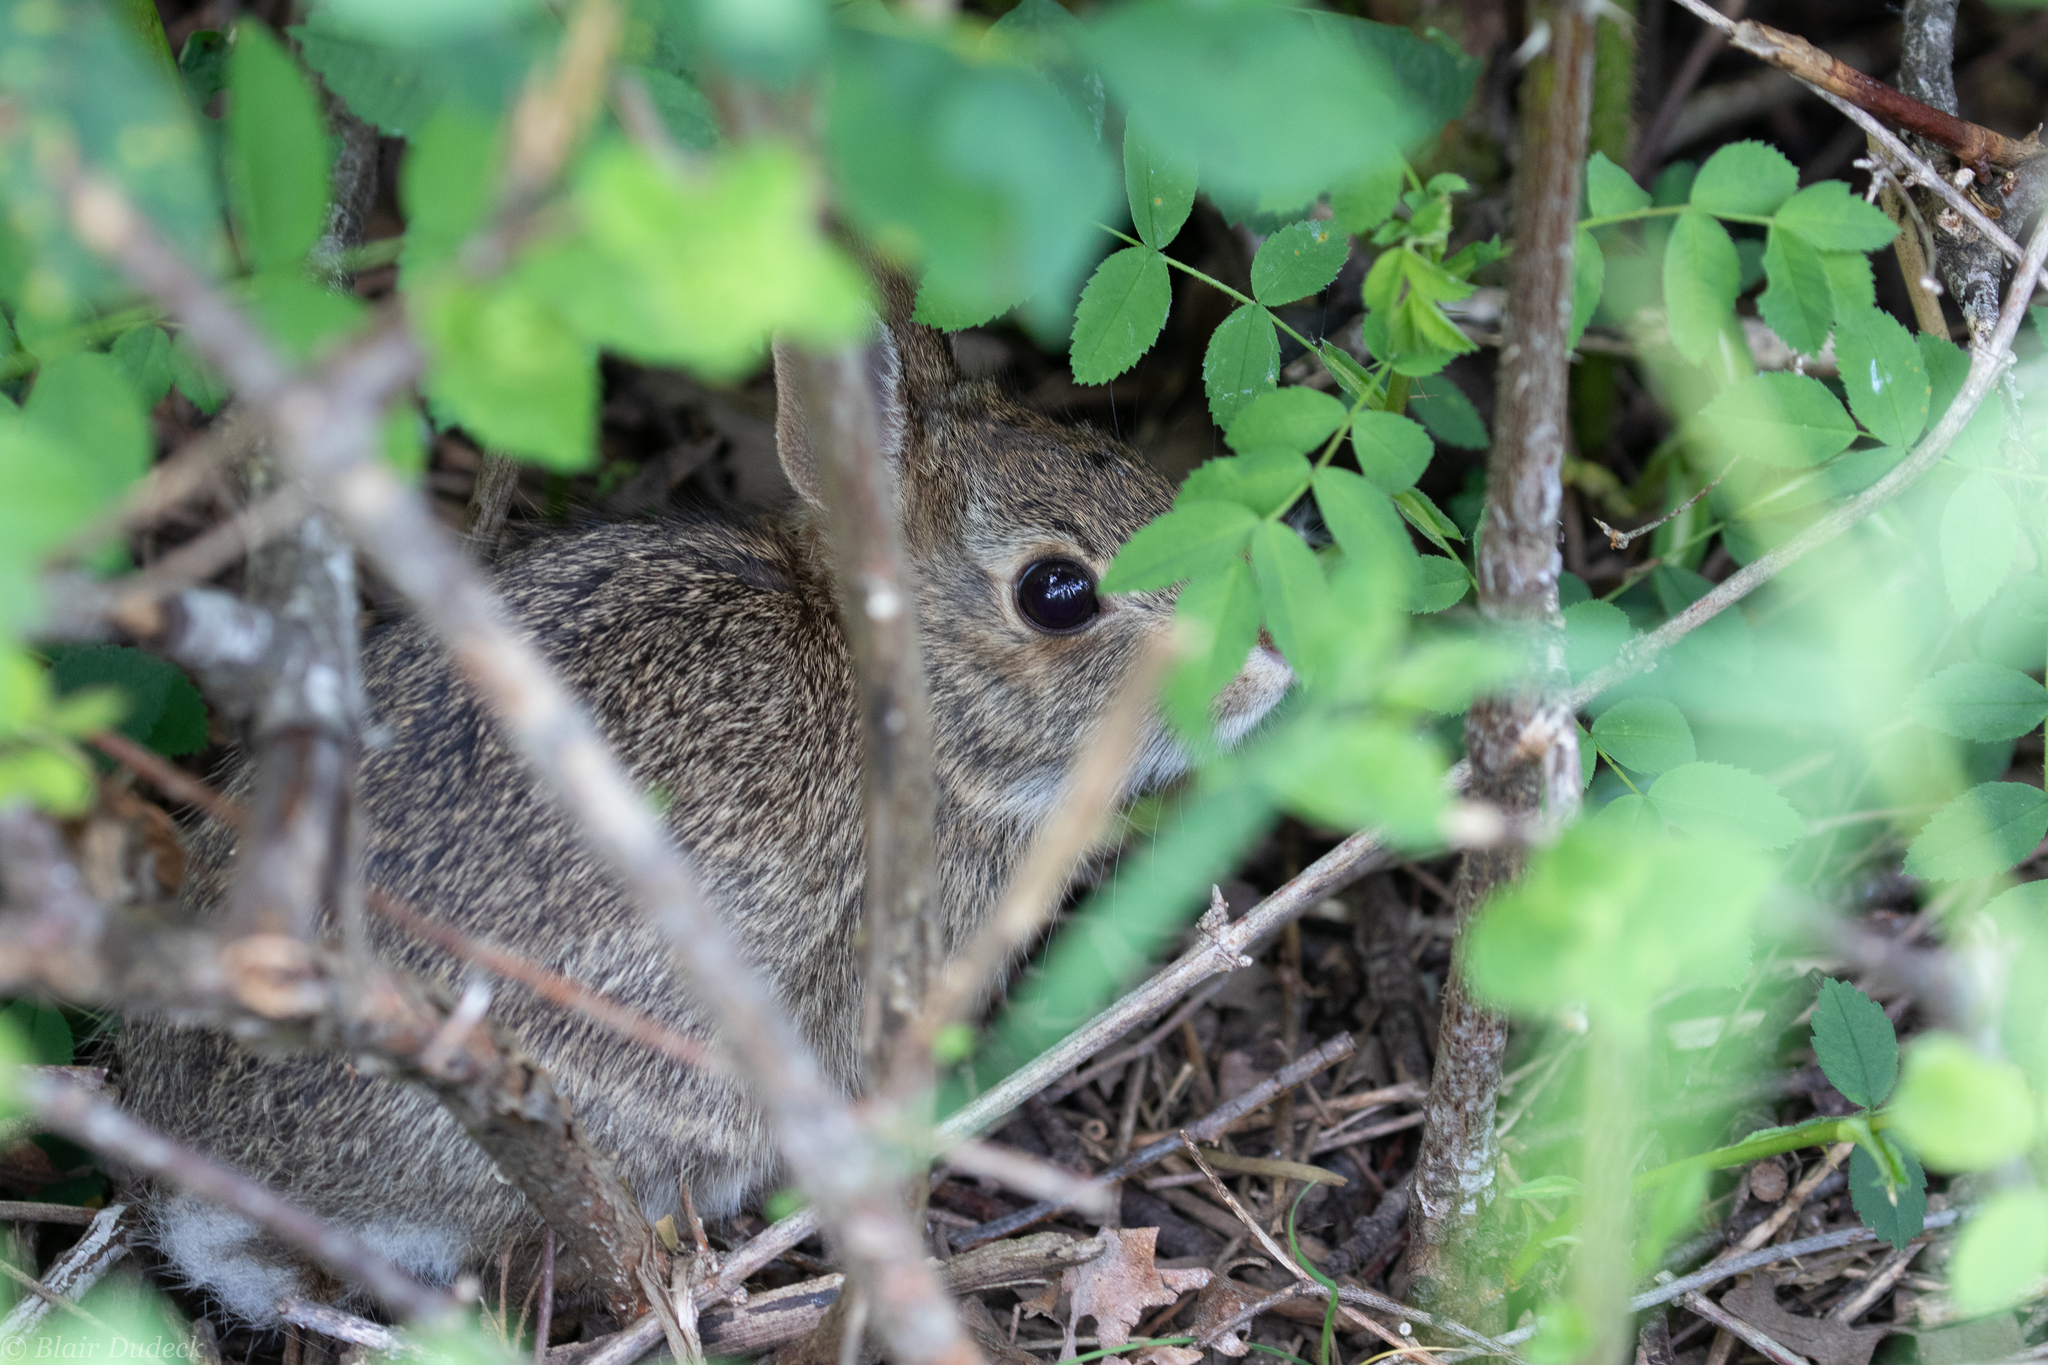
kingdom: Animalia
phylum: Chordata
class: Mammalia
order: Lagomorpha
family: Leporidae
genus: Sylvilagus
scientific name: Sylvilagus floridanus
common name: Eastern cottontail
